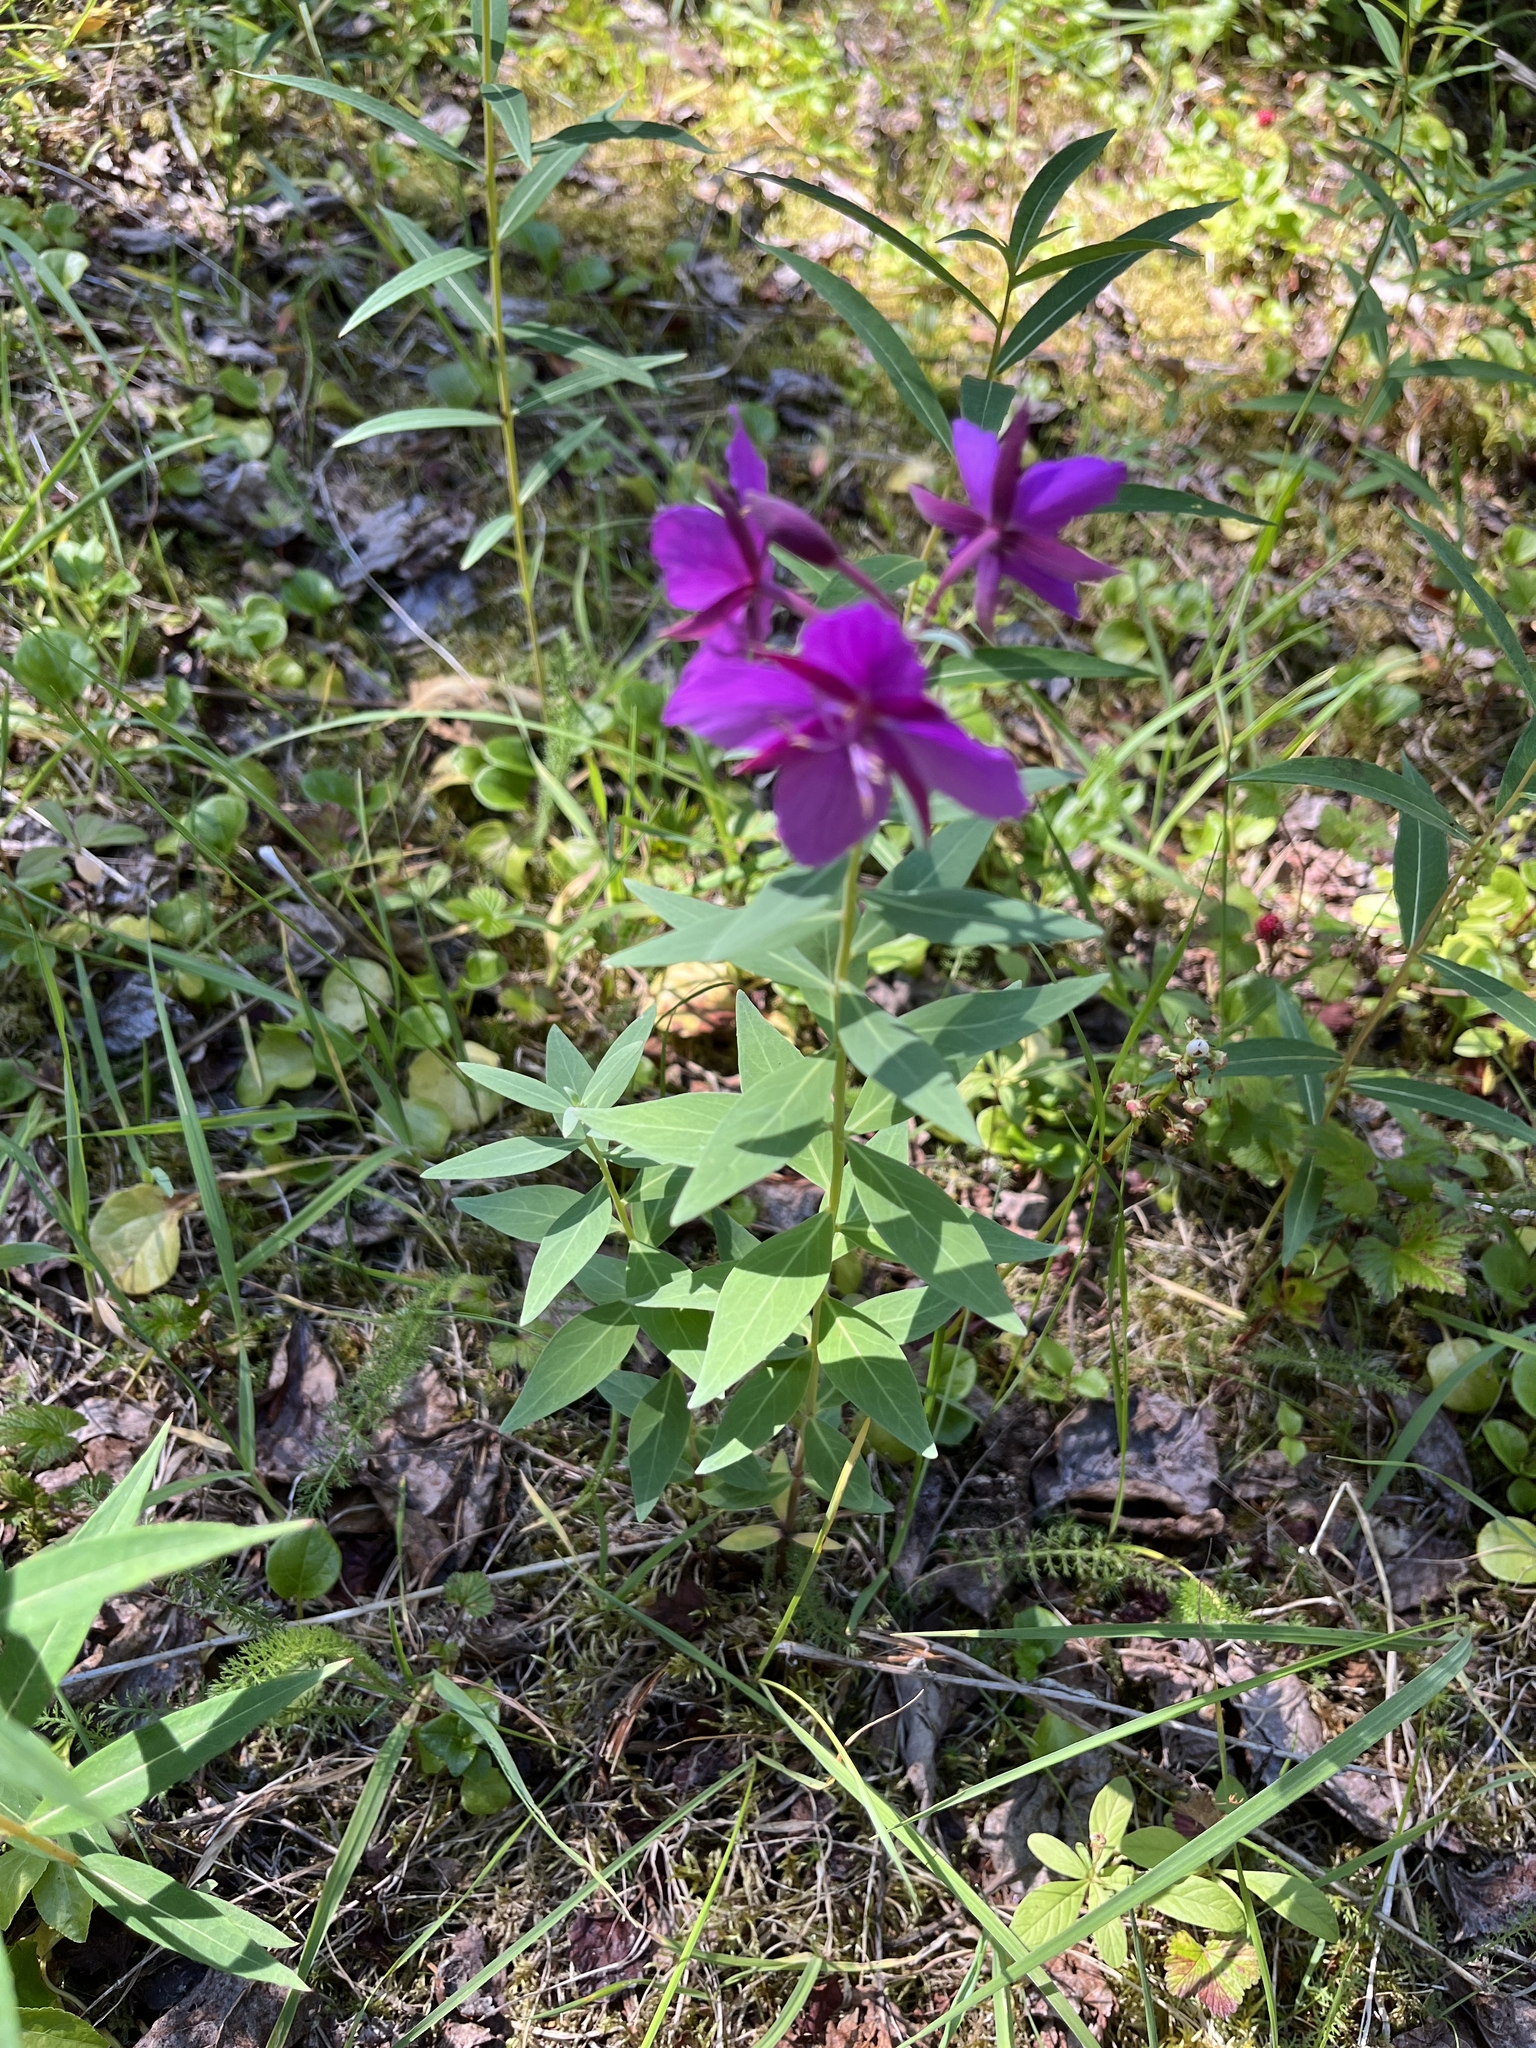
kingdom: Plantae
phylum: Tracheophyta
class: Magnoliopsida
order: Myrtales
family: Onagraceae
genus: Chamaenerion
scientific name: Chamaenerion latifolium
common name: Dwarf fireweed
